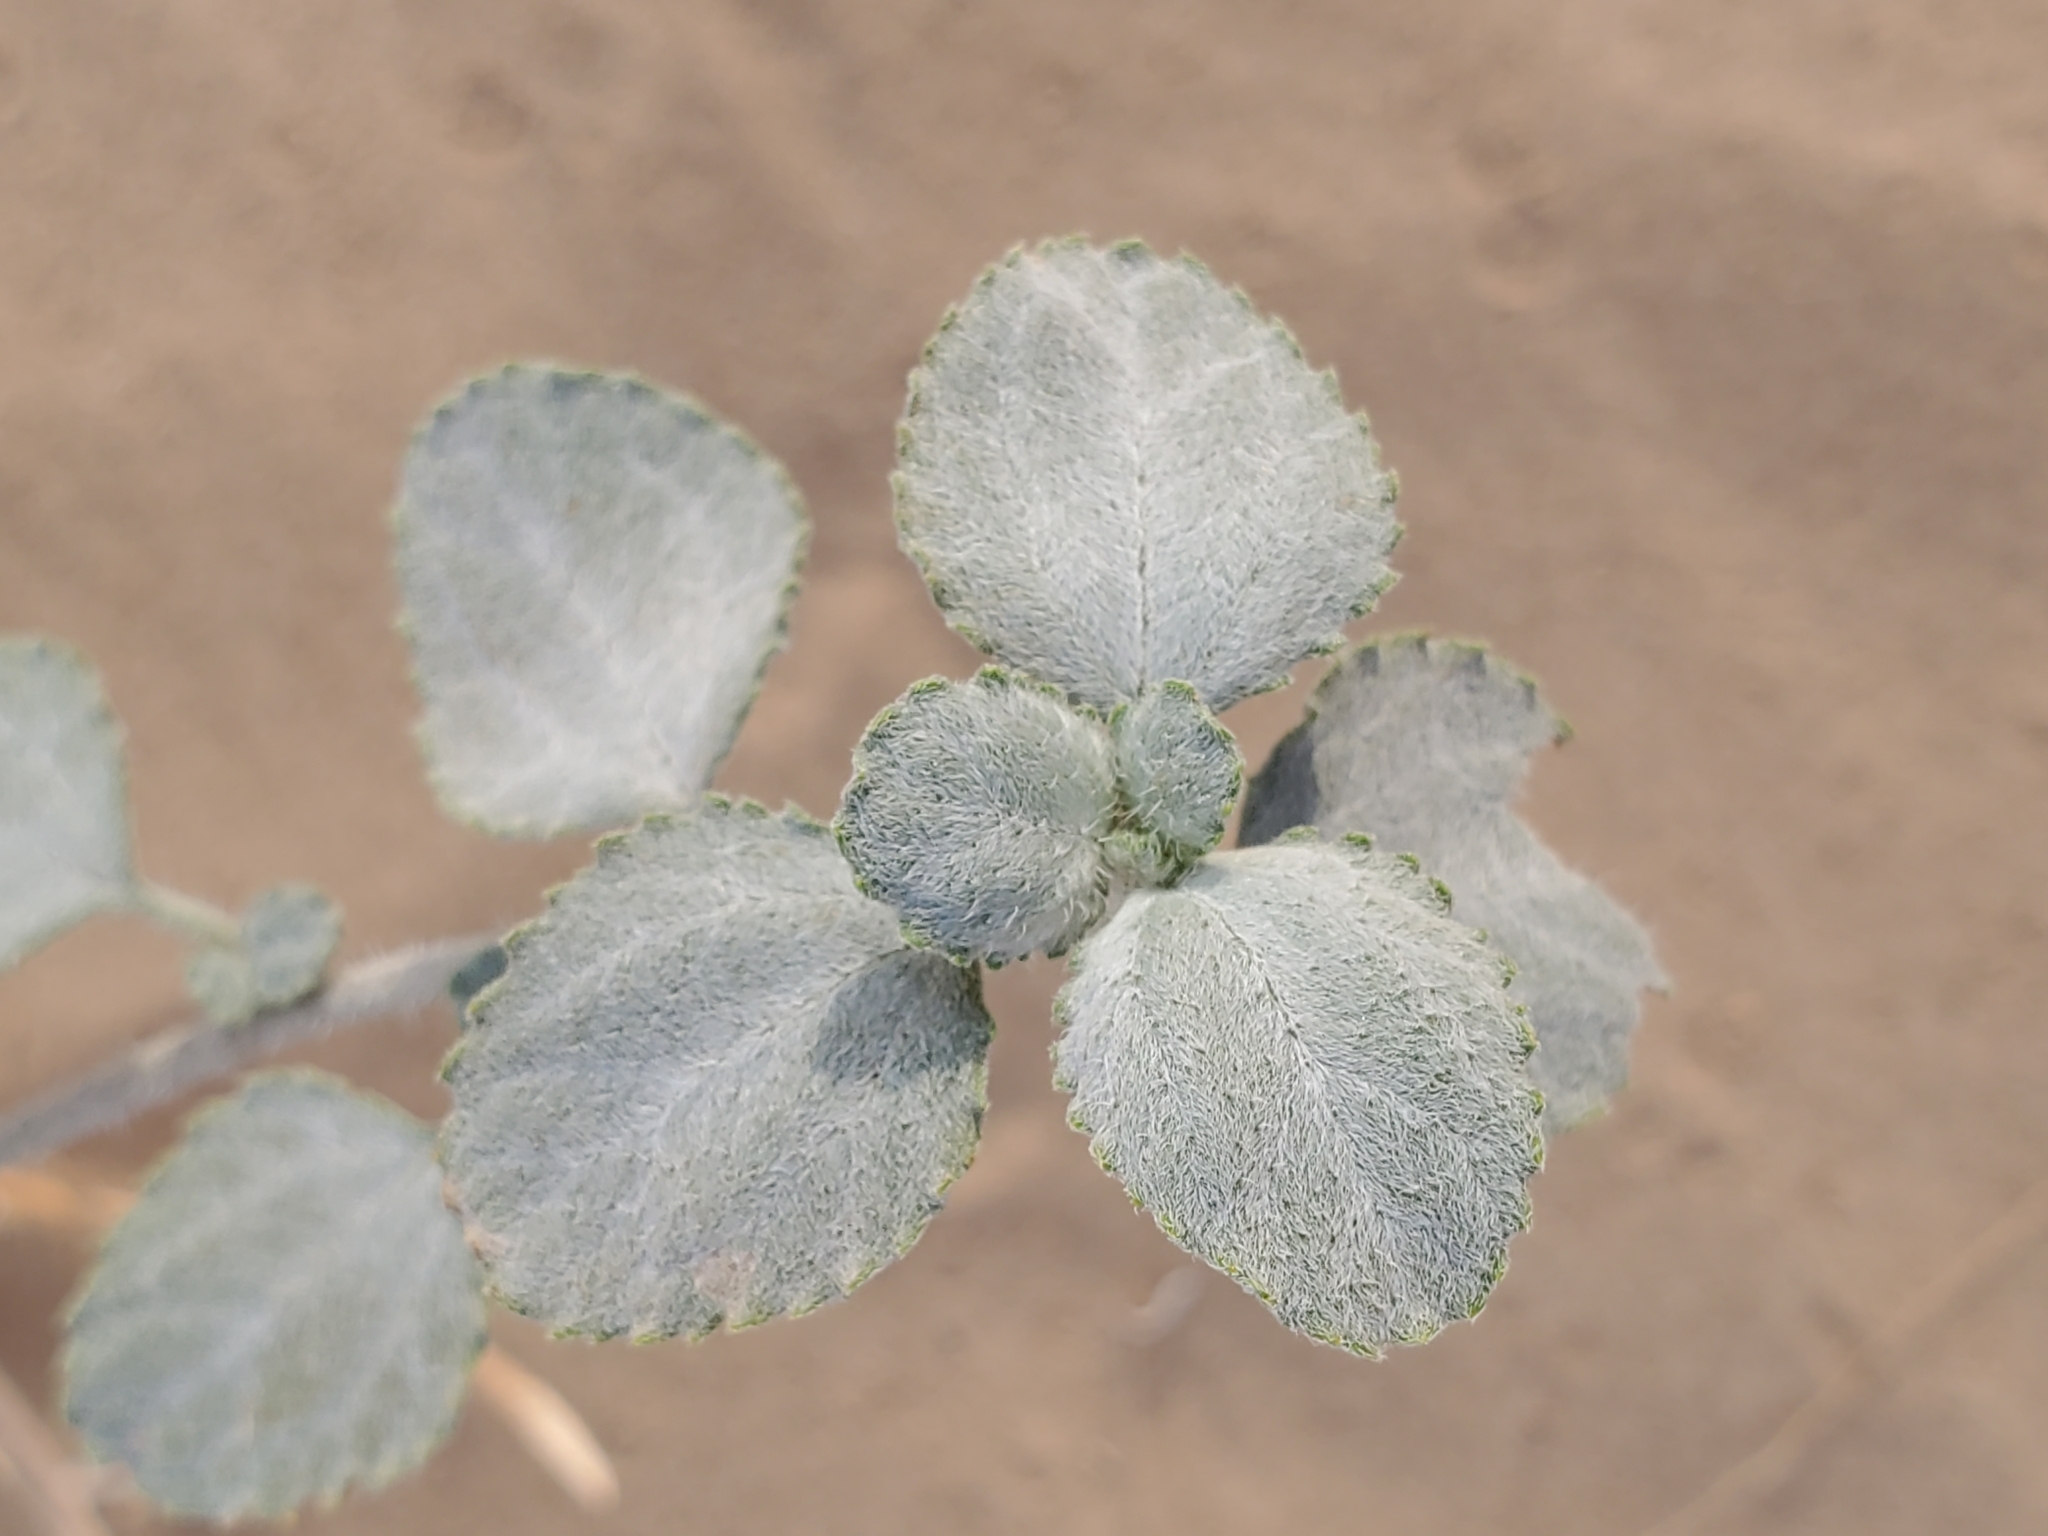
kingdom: Plantae
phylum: Tracheophyta
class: Magnoliopsida
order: Asterales
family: Asteraceae
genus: Dicoria
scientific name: Dicoria canescens
